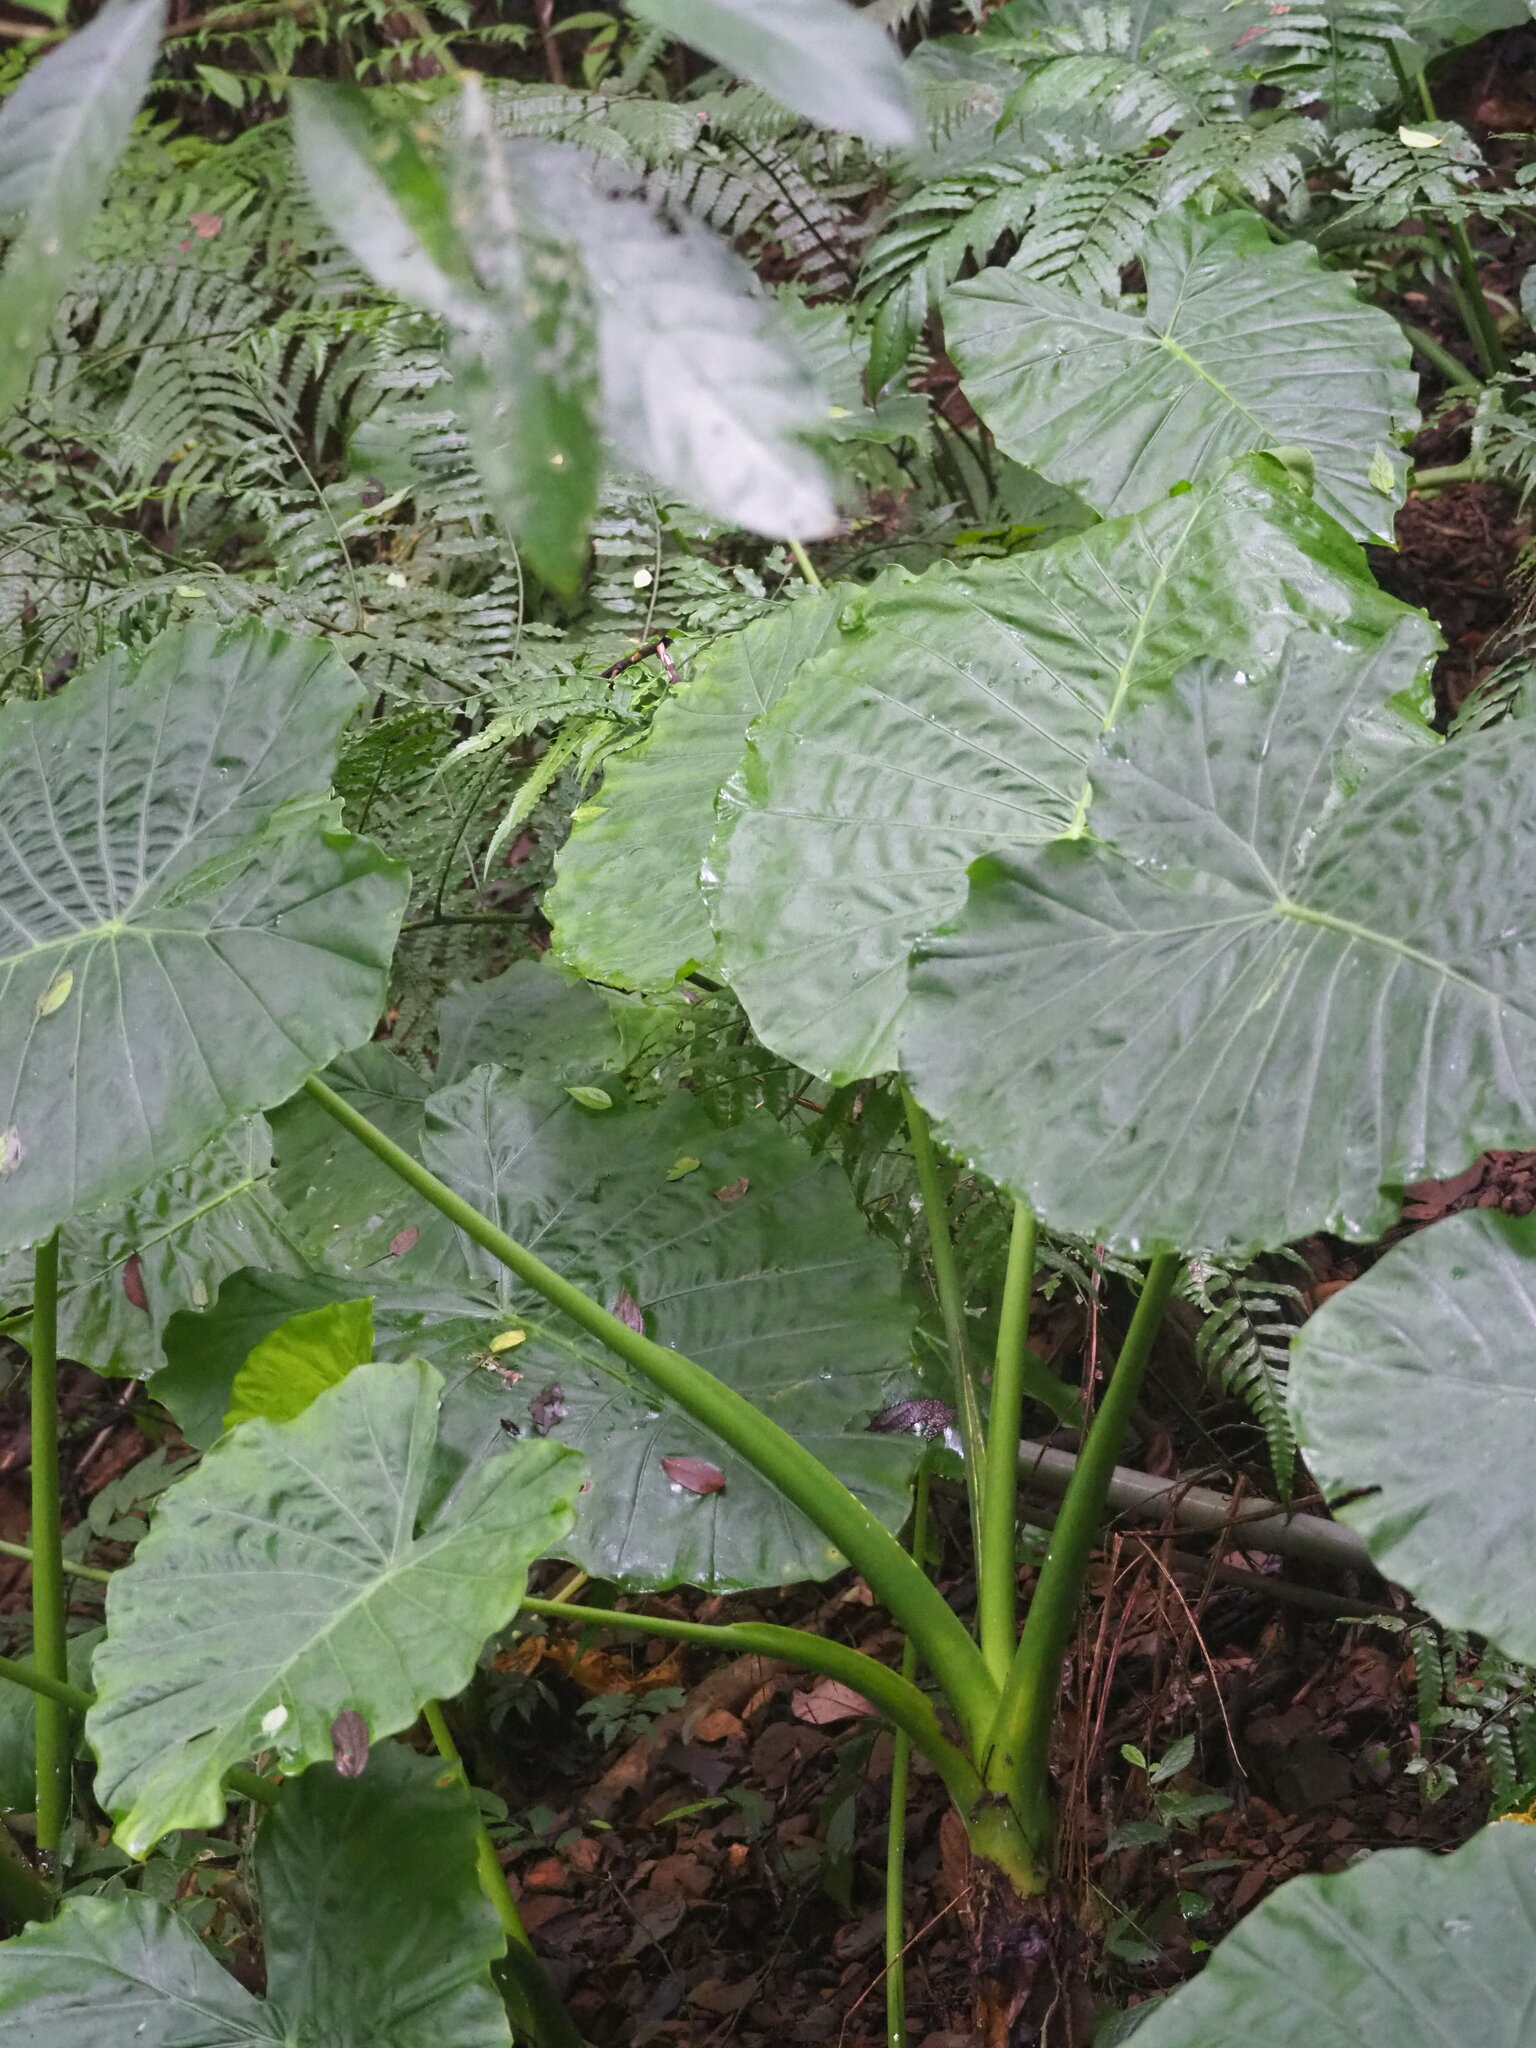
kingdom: Plantae
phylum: Tracheophyta
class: Liliopsida
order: Alismatales
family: Araceae
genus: Alocasia
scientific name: Alocasia odora
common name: Asian taro
